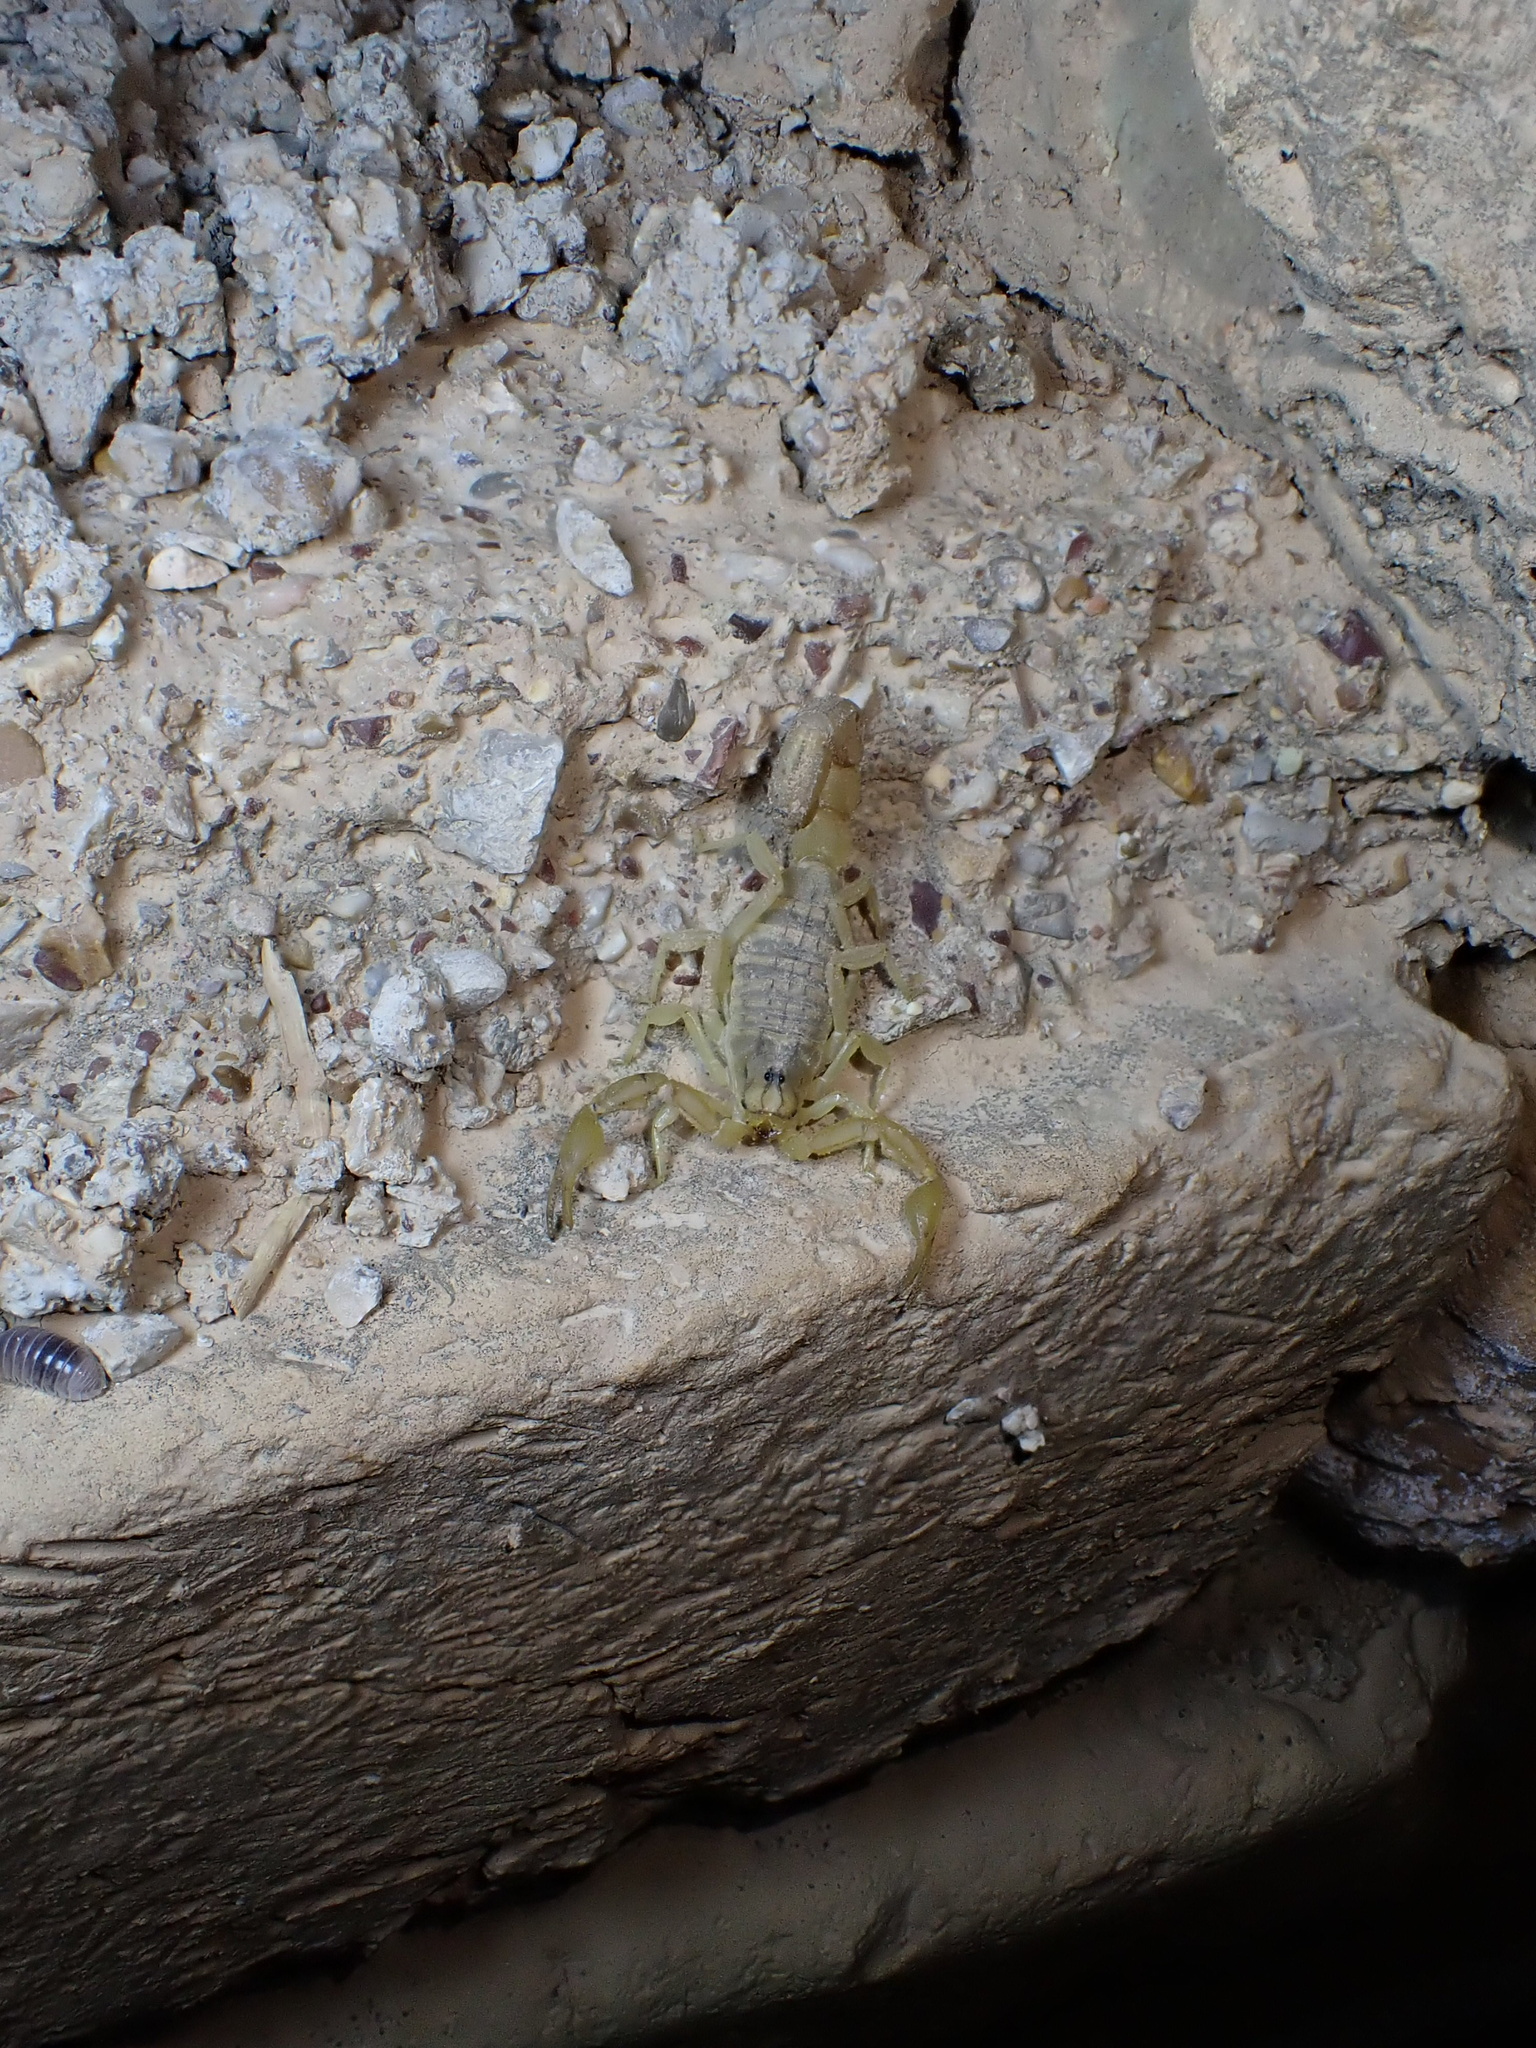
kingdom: Animalia
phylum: Arthropoda
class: Arachnida
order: Scorpiones
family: Buthidae
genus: Mesobuthus
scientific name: Mesobuthus crucittii
